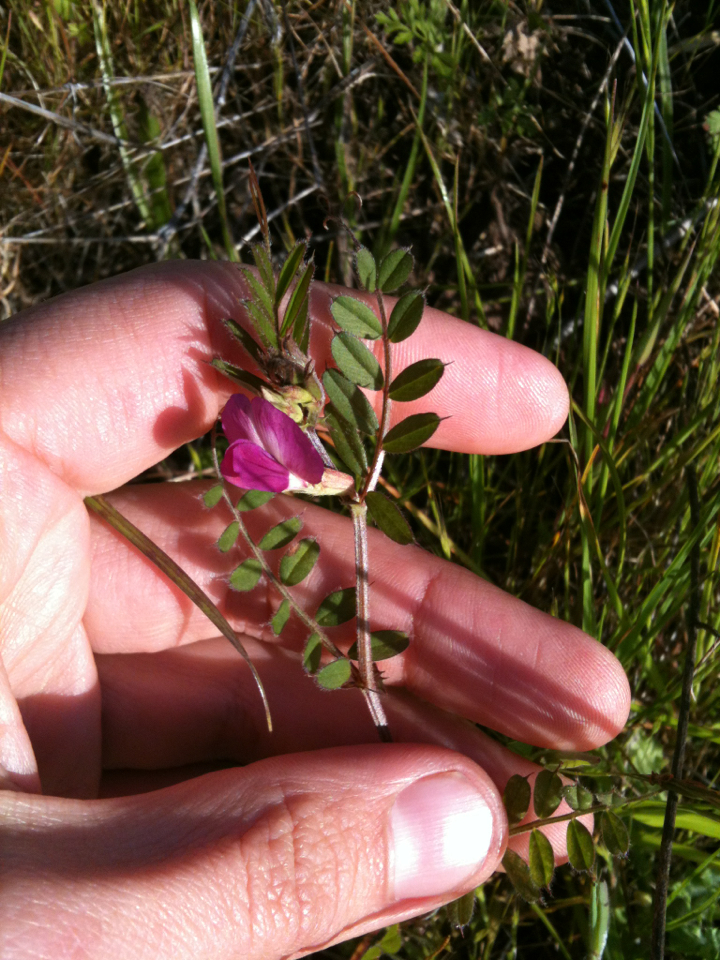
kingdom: Plantae
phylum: Tracheophyta
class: Magnoliopsida
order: Fabales
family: Fabaceae
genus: Vicia
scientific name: Vicia sativa
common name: Garden vetch
